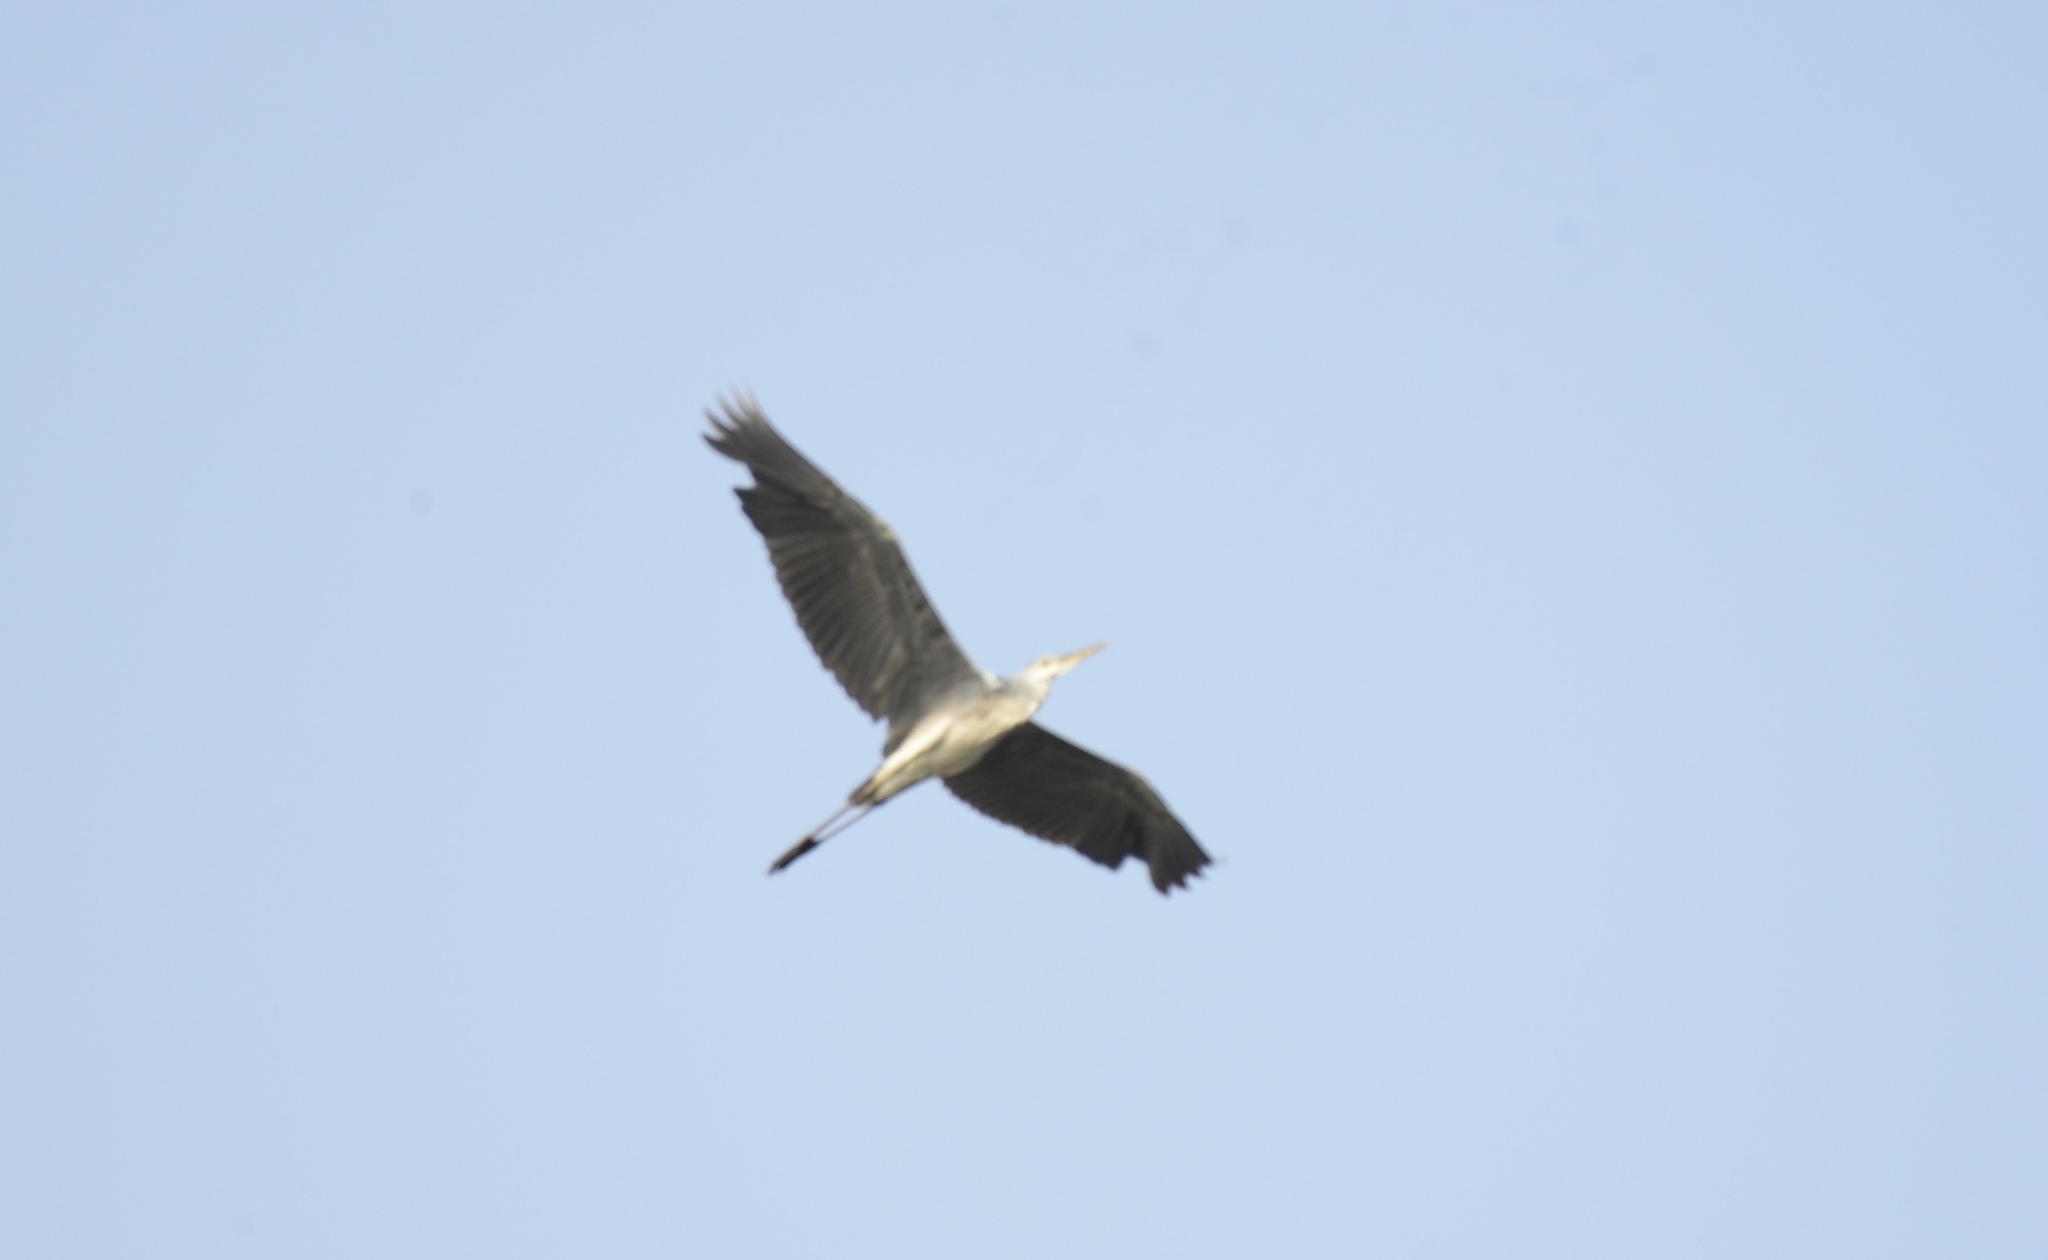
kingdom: Animalia
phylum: Chordata
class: Aves
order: Pelecaniformes
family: Ardeidae
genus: Ardea
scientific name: Ardea cinerea
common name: Grey heron
